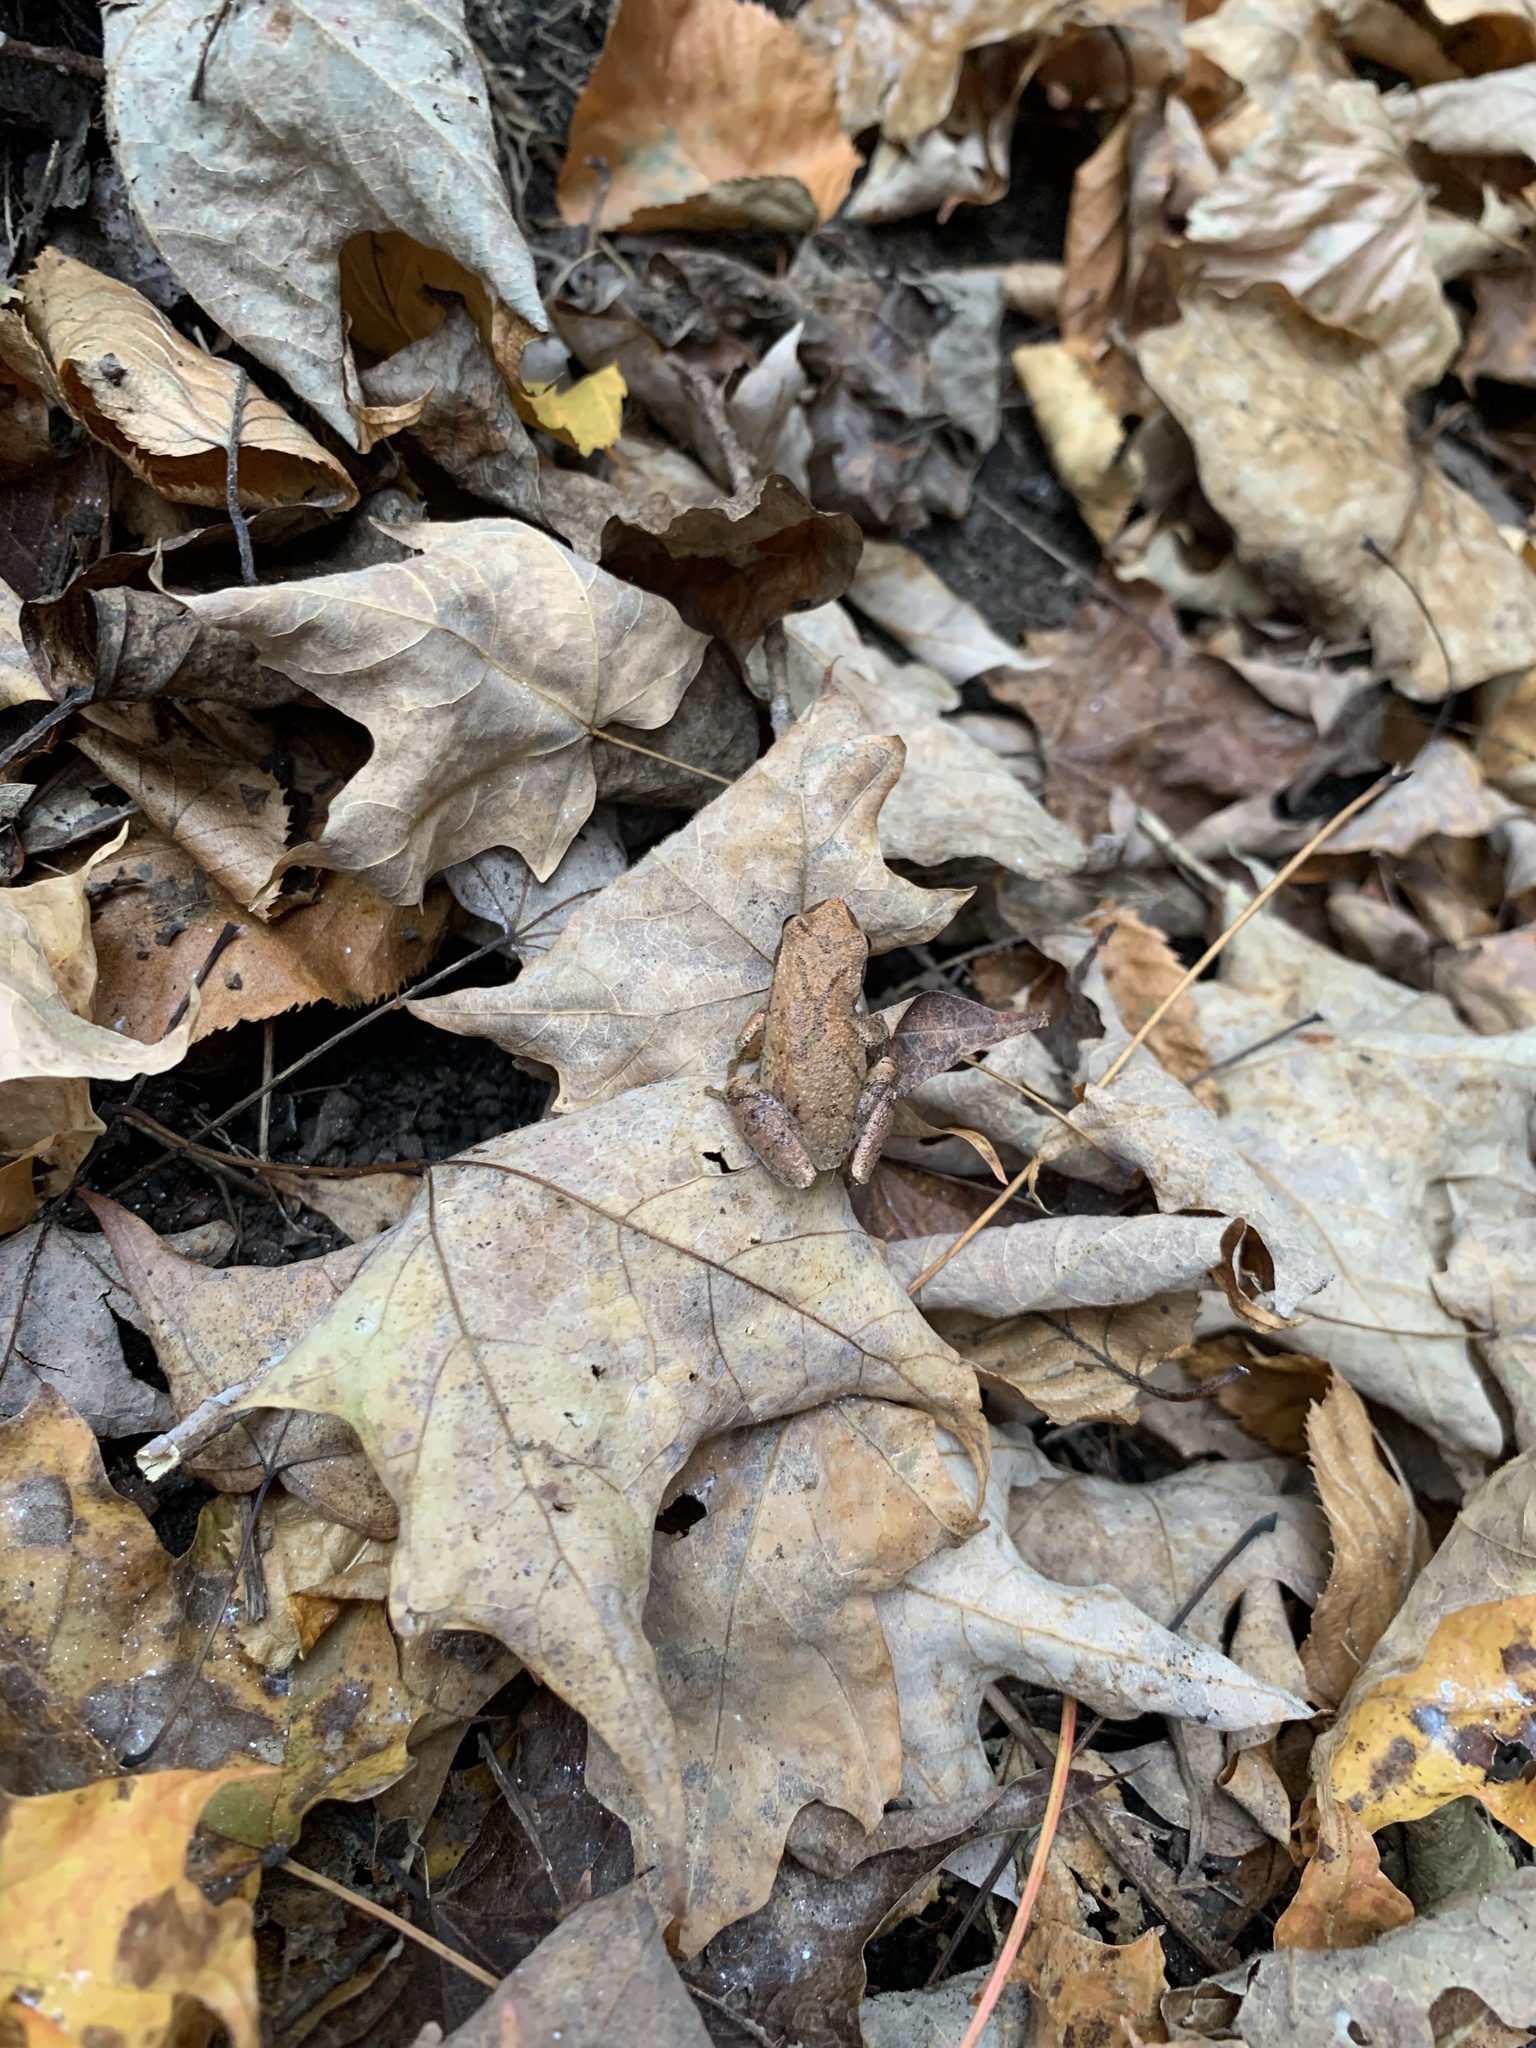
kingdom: Animalia
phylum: Chordata
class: Amphibia
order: Anura
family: Hylidae
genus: Pseudacris
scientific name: Pseudacris crucifer
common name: Spring peeper
